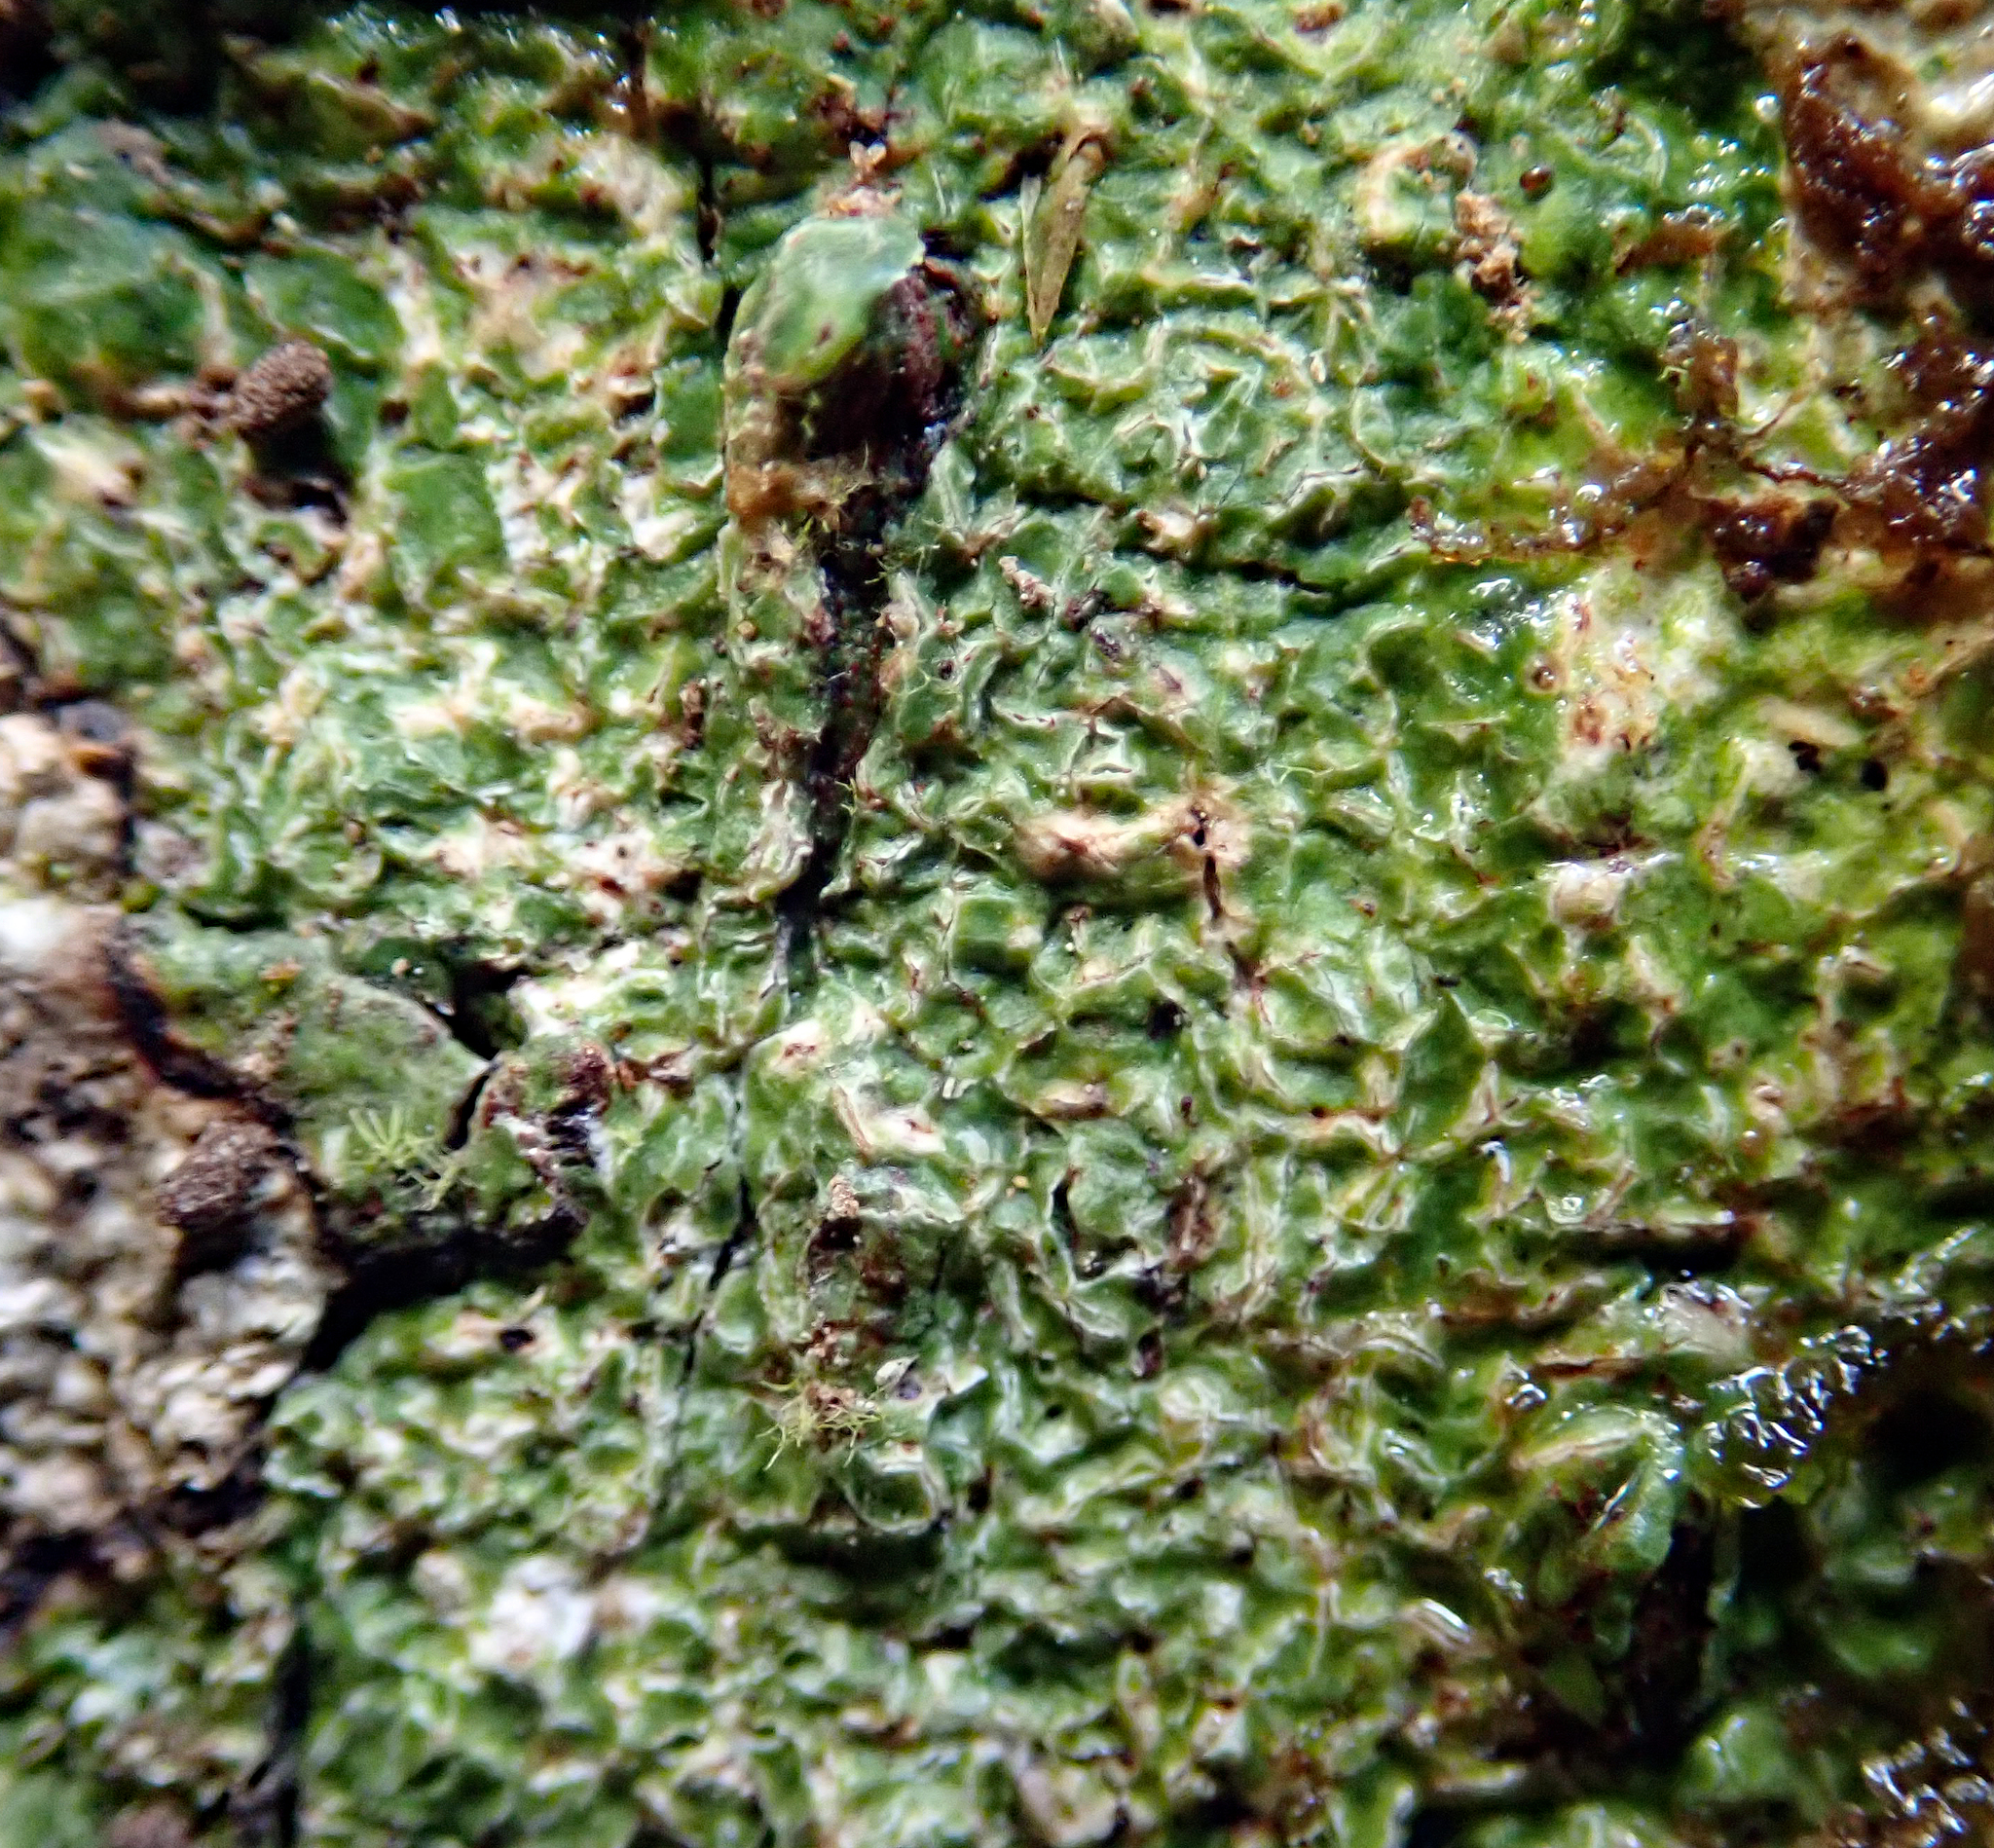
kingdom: Fungi
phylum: Ascomycota
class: Lecanoromycetes
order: Ostropales
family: Graphidaceae
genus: Fissurina
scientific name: Fissurina triticea
